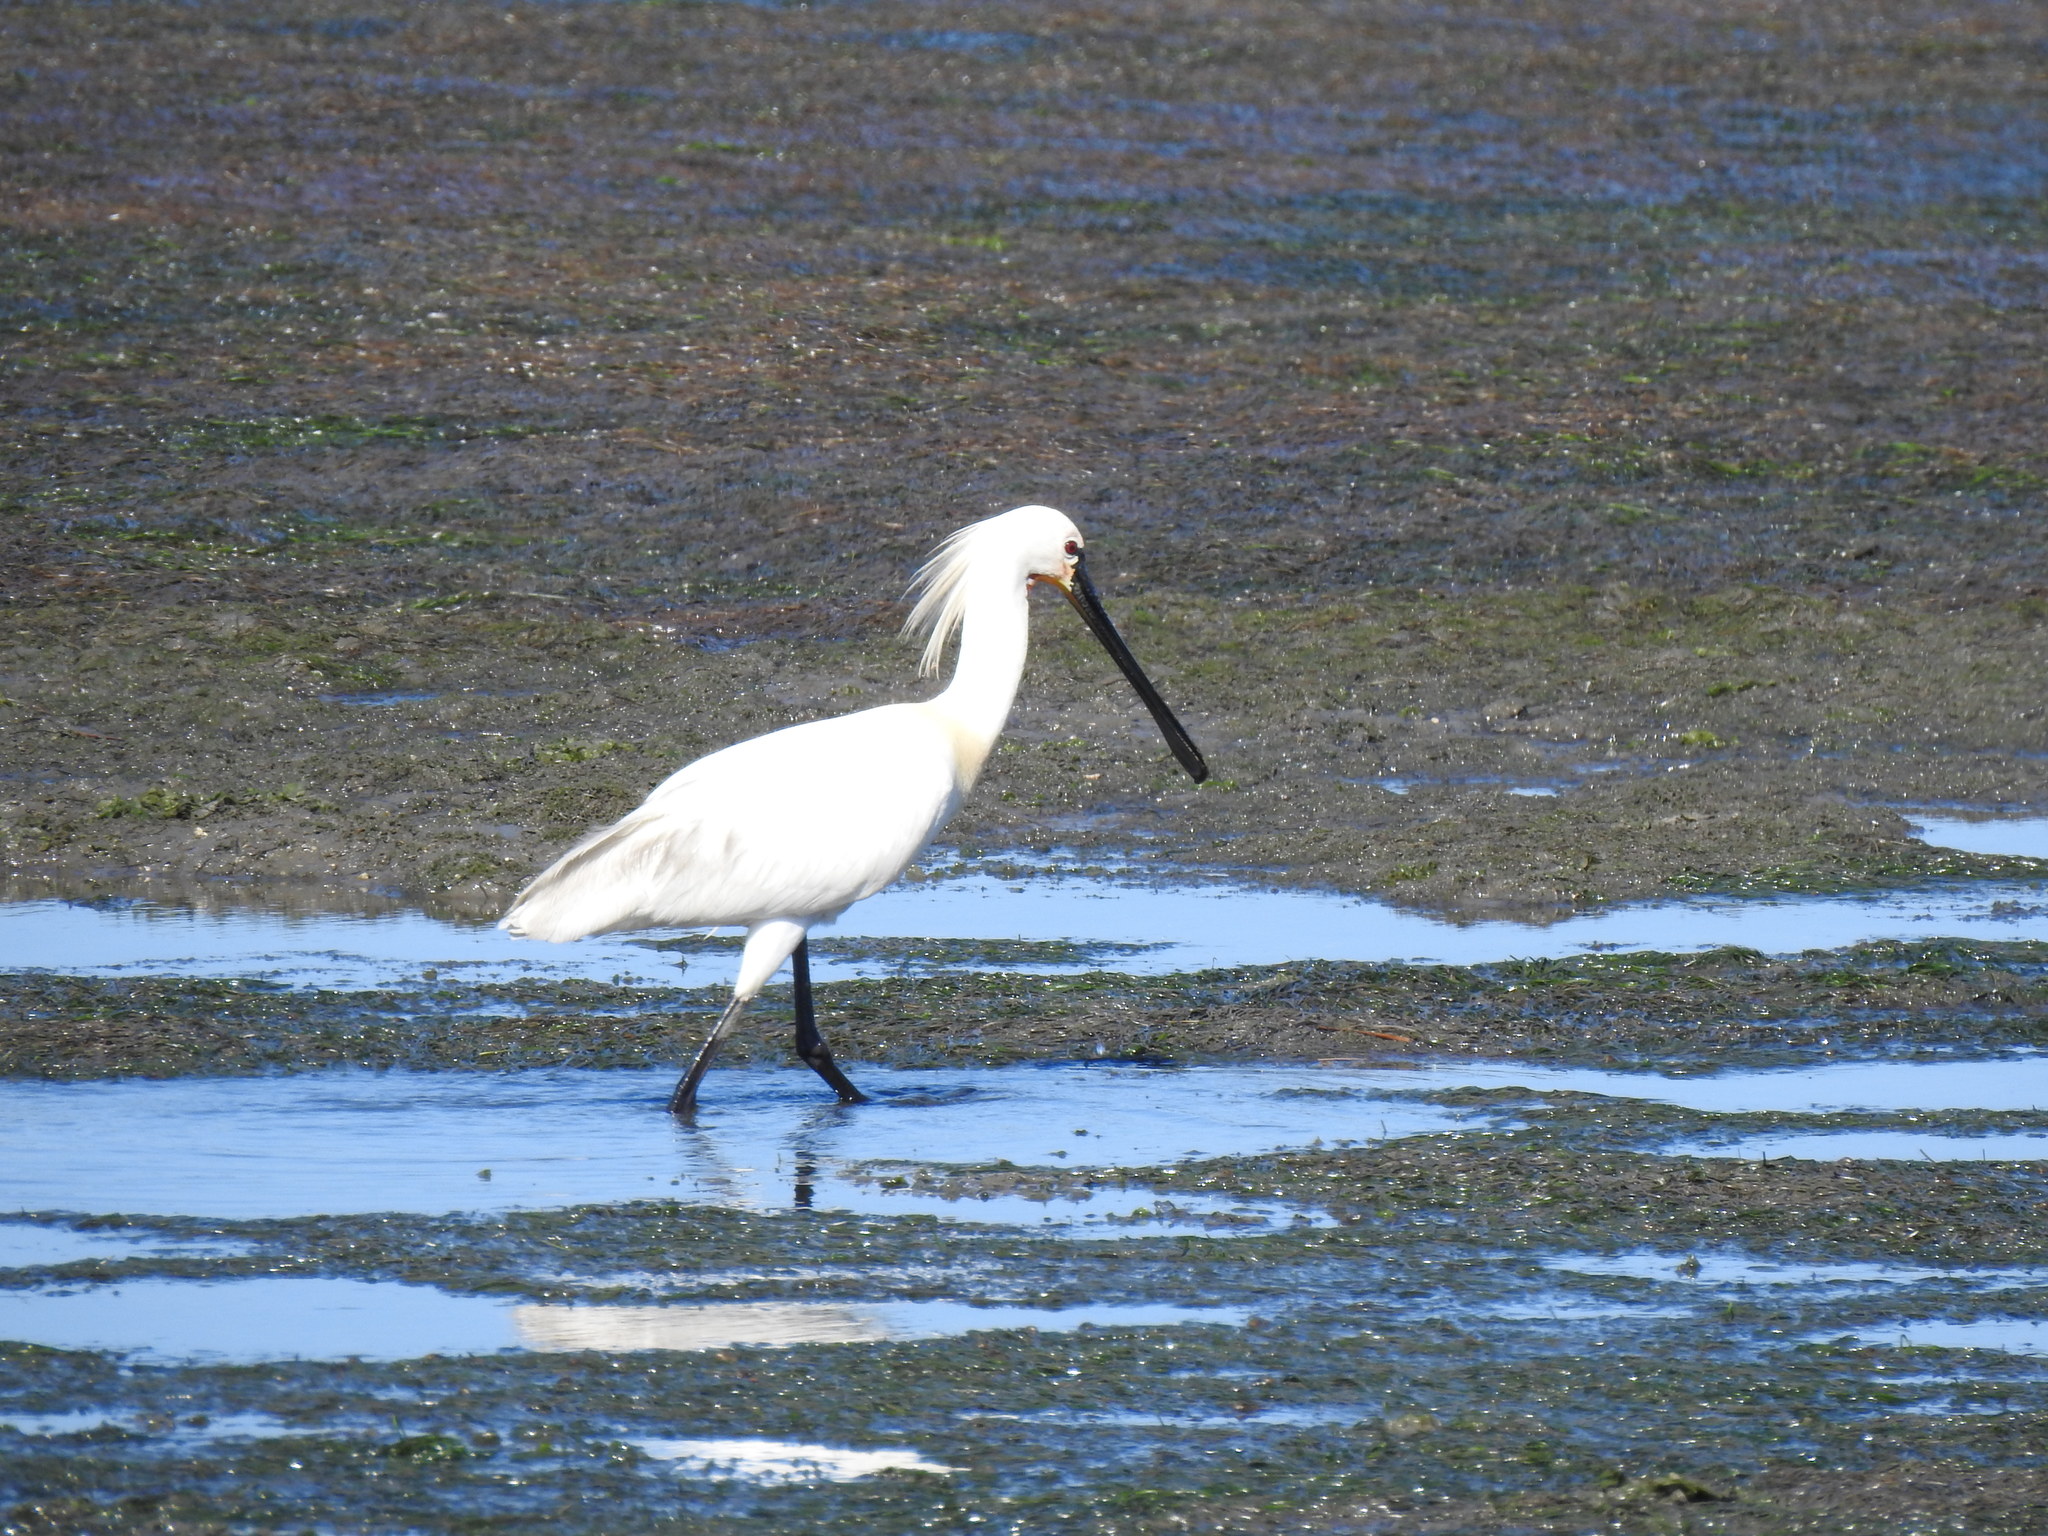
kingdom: Animalia
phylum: Chordata
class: Aves
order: Pelecaniformes
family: Threskiornithidae
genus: Platalea
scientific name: Platalea leucorodia
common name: Eurasian spoonbill
